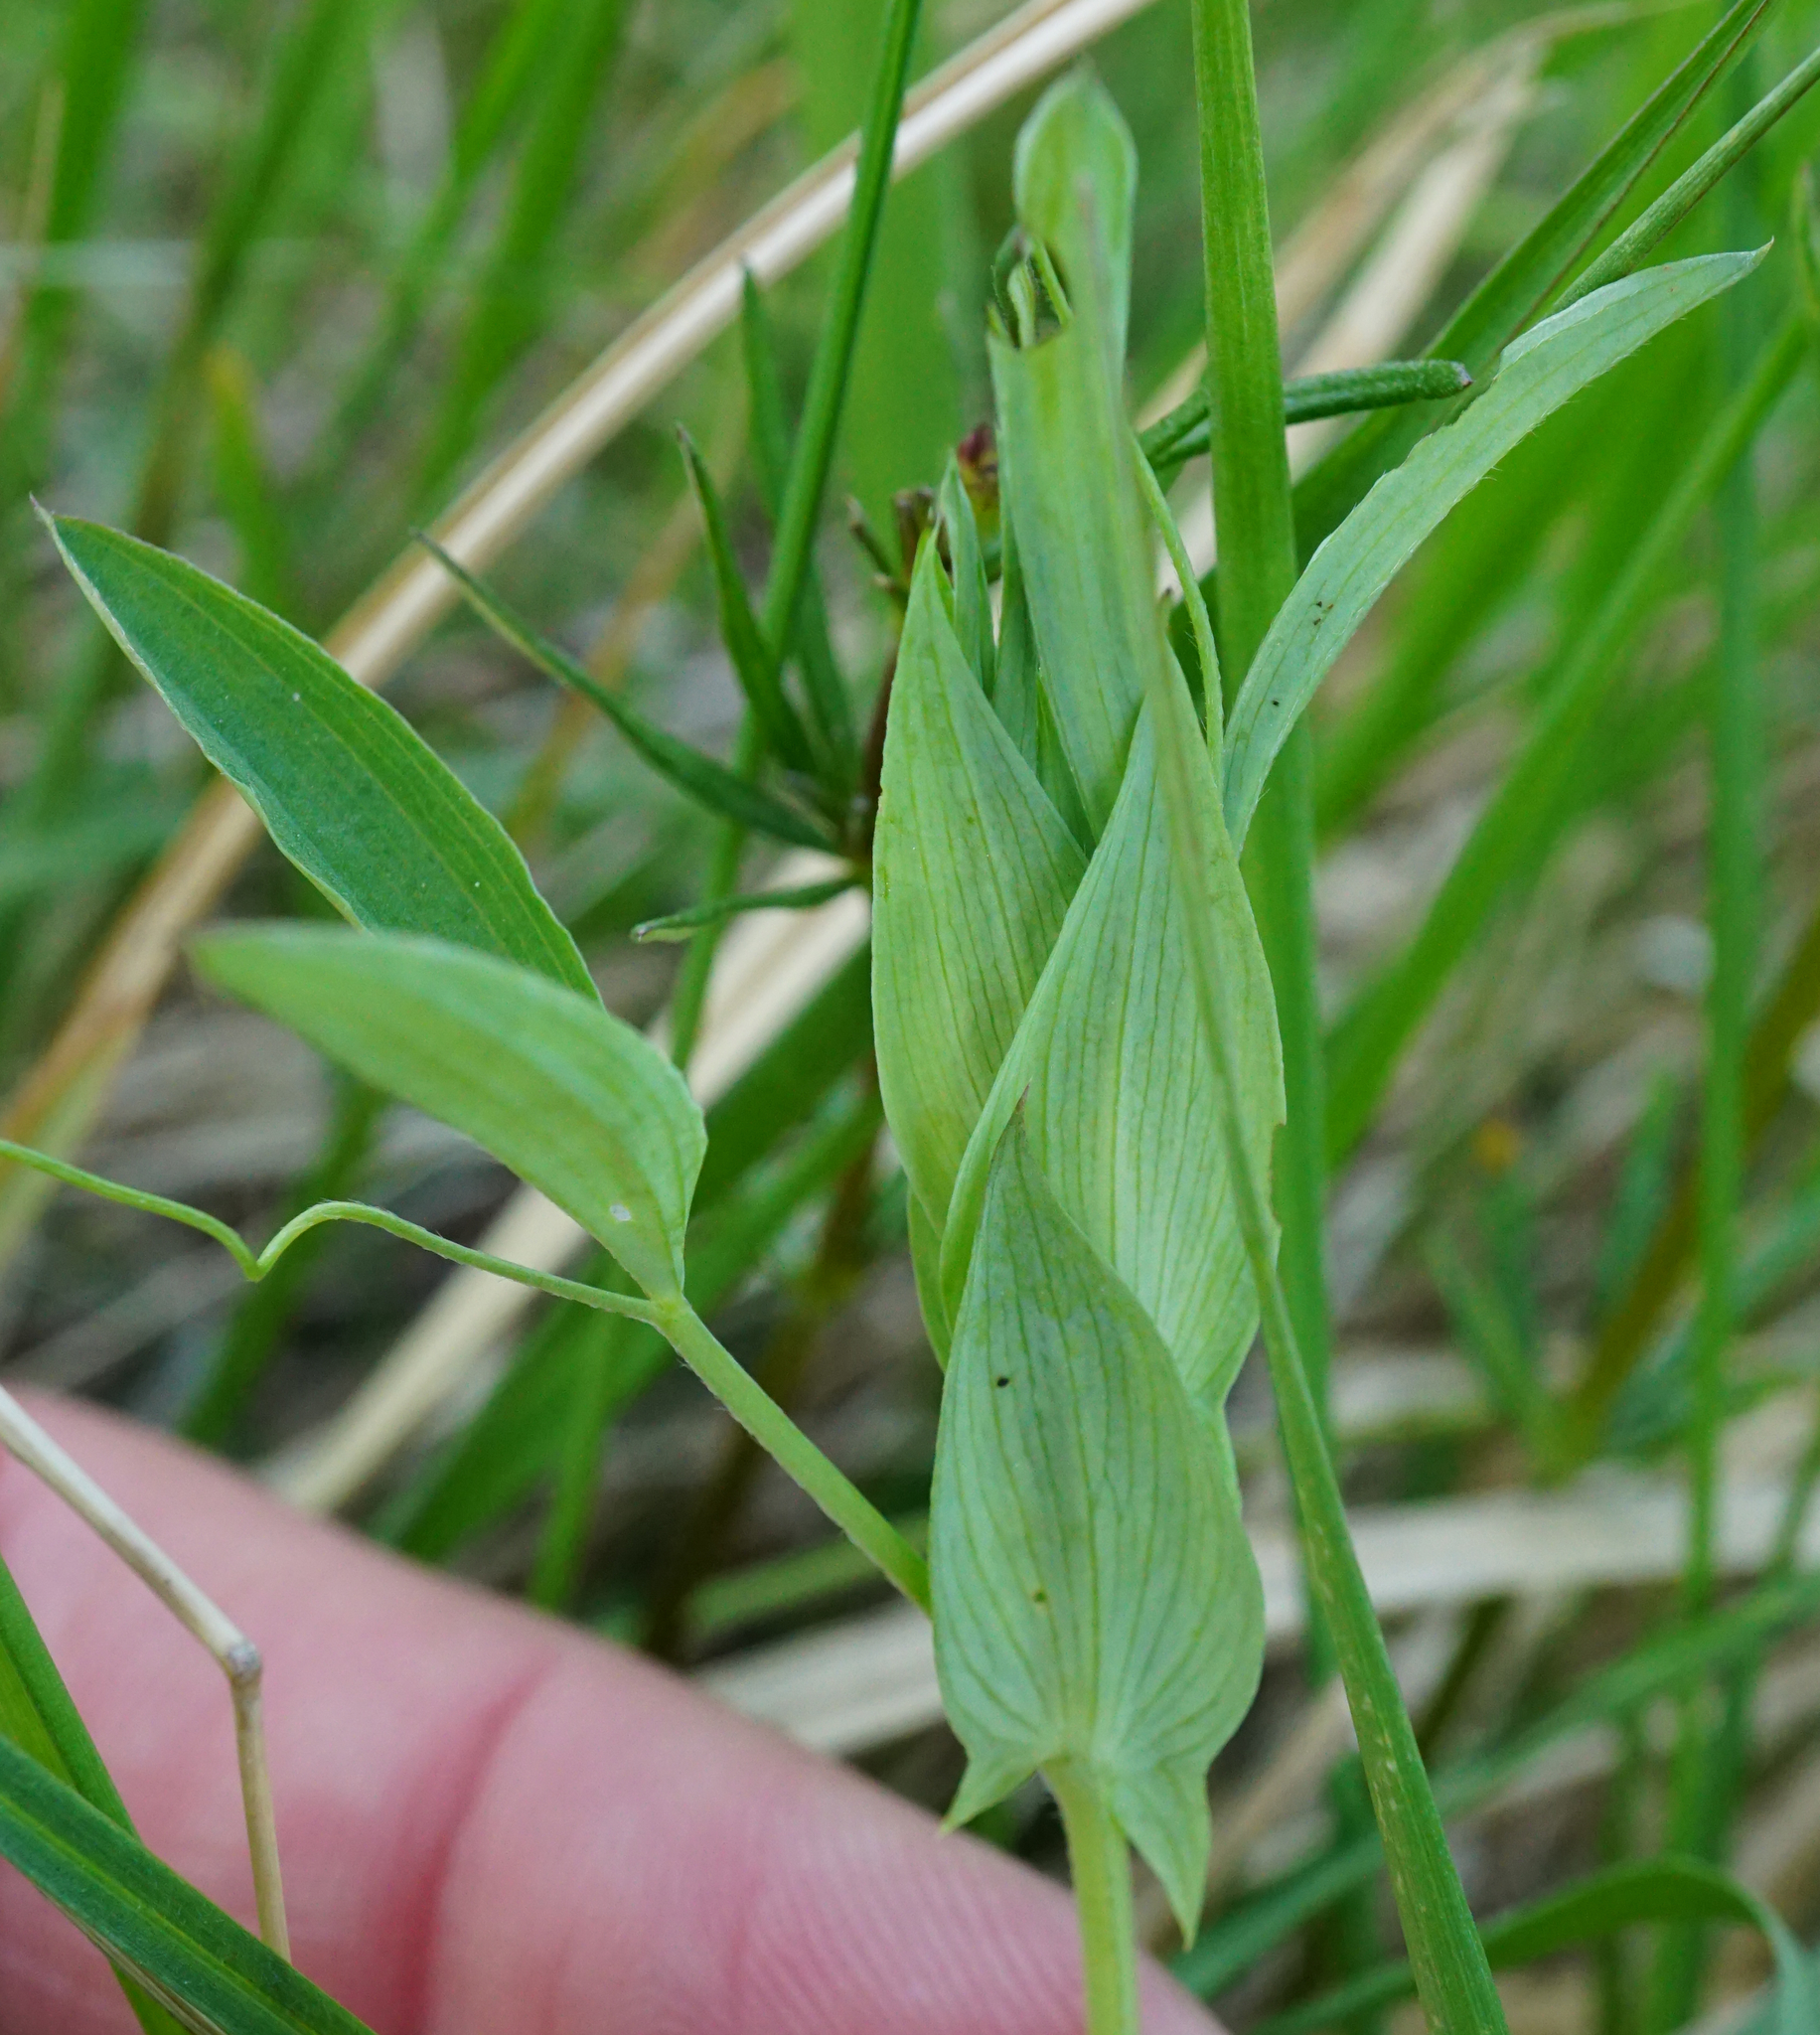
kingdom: Plantae
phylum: Tracheophyta
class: Magnoliopsida
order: Fabales
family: Fabaceae
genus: Lathyrus
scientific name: Lathyrus pratensis
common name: Meadow vetchling
